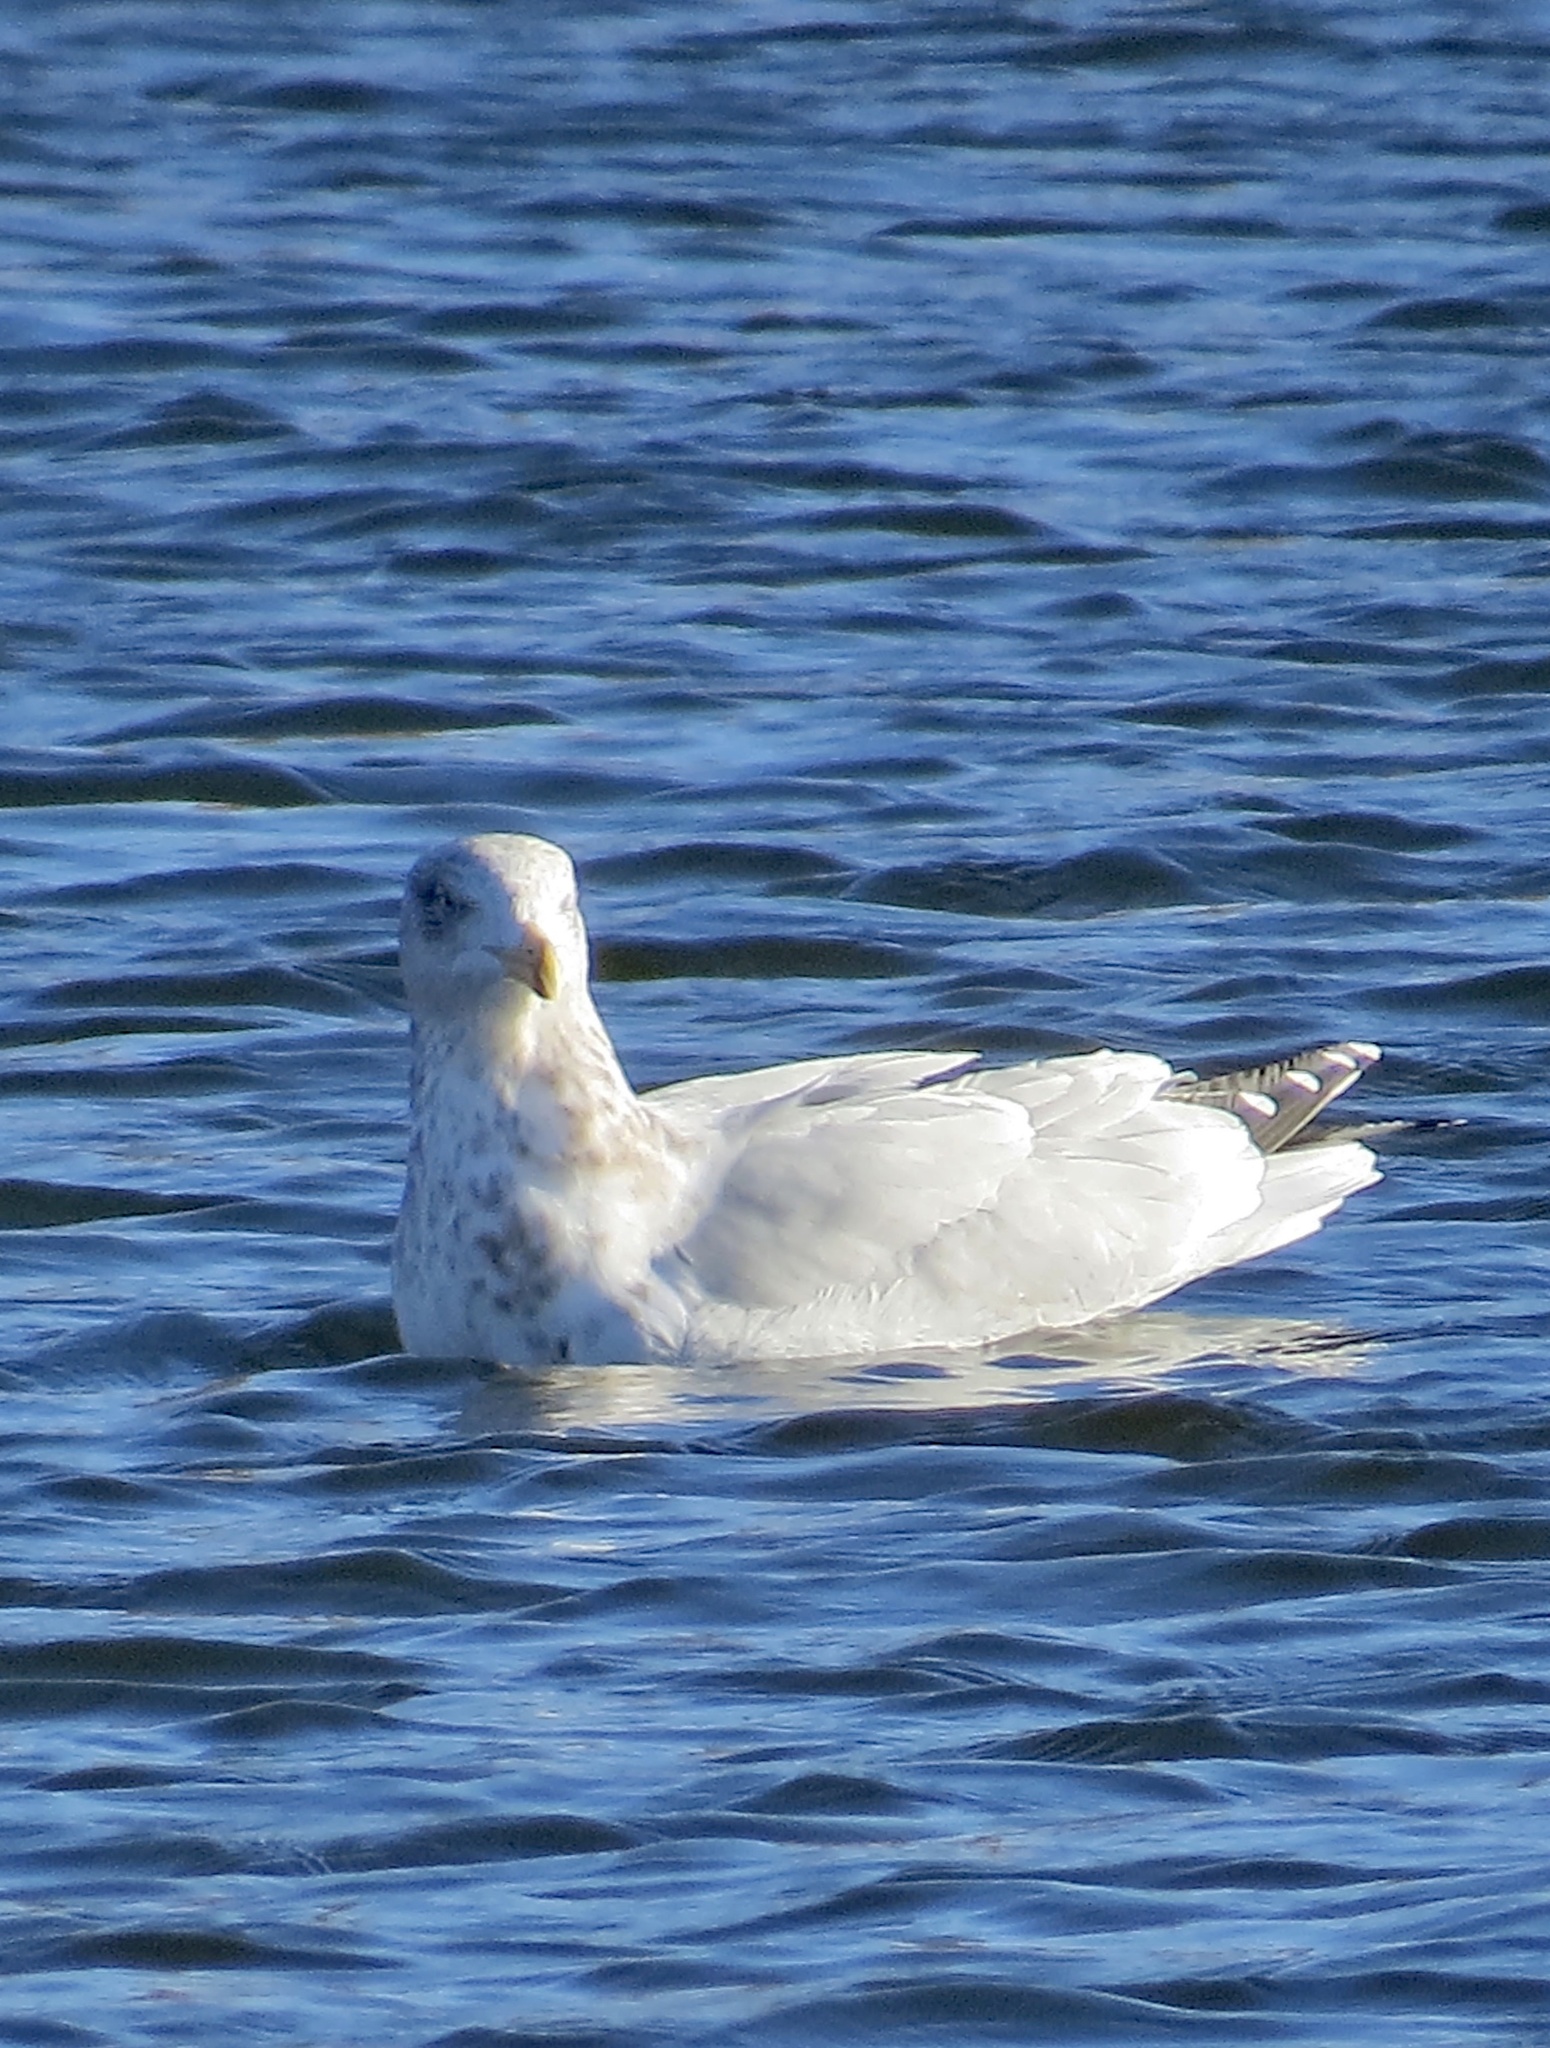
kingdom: Animalia
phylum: Chordata
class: Aves
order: Charadriiformes
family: Laridae
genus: Larus
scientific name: Larus argentatus
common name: Herring gull
